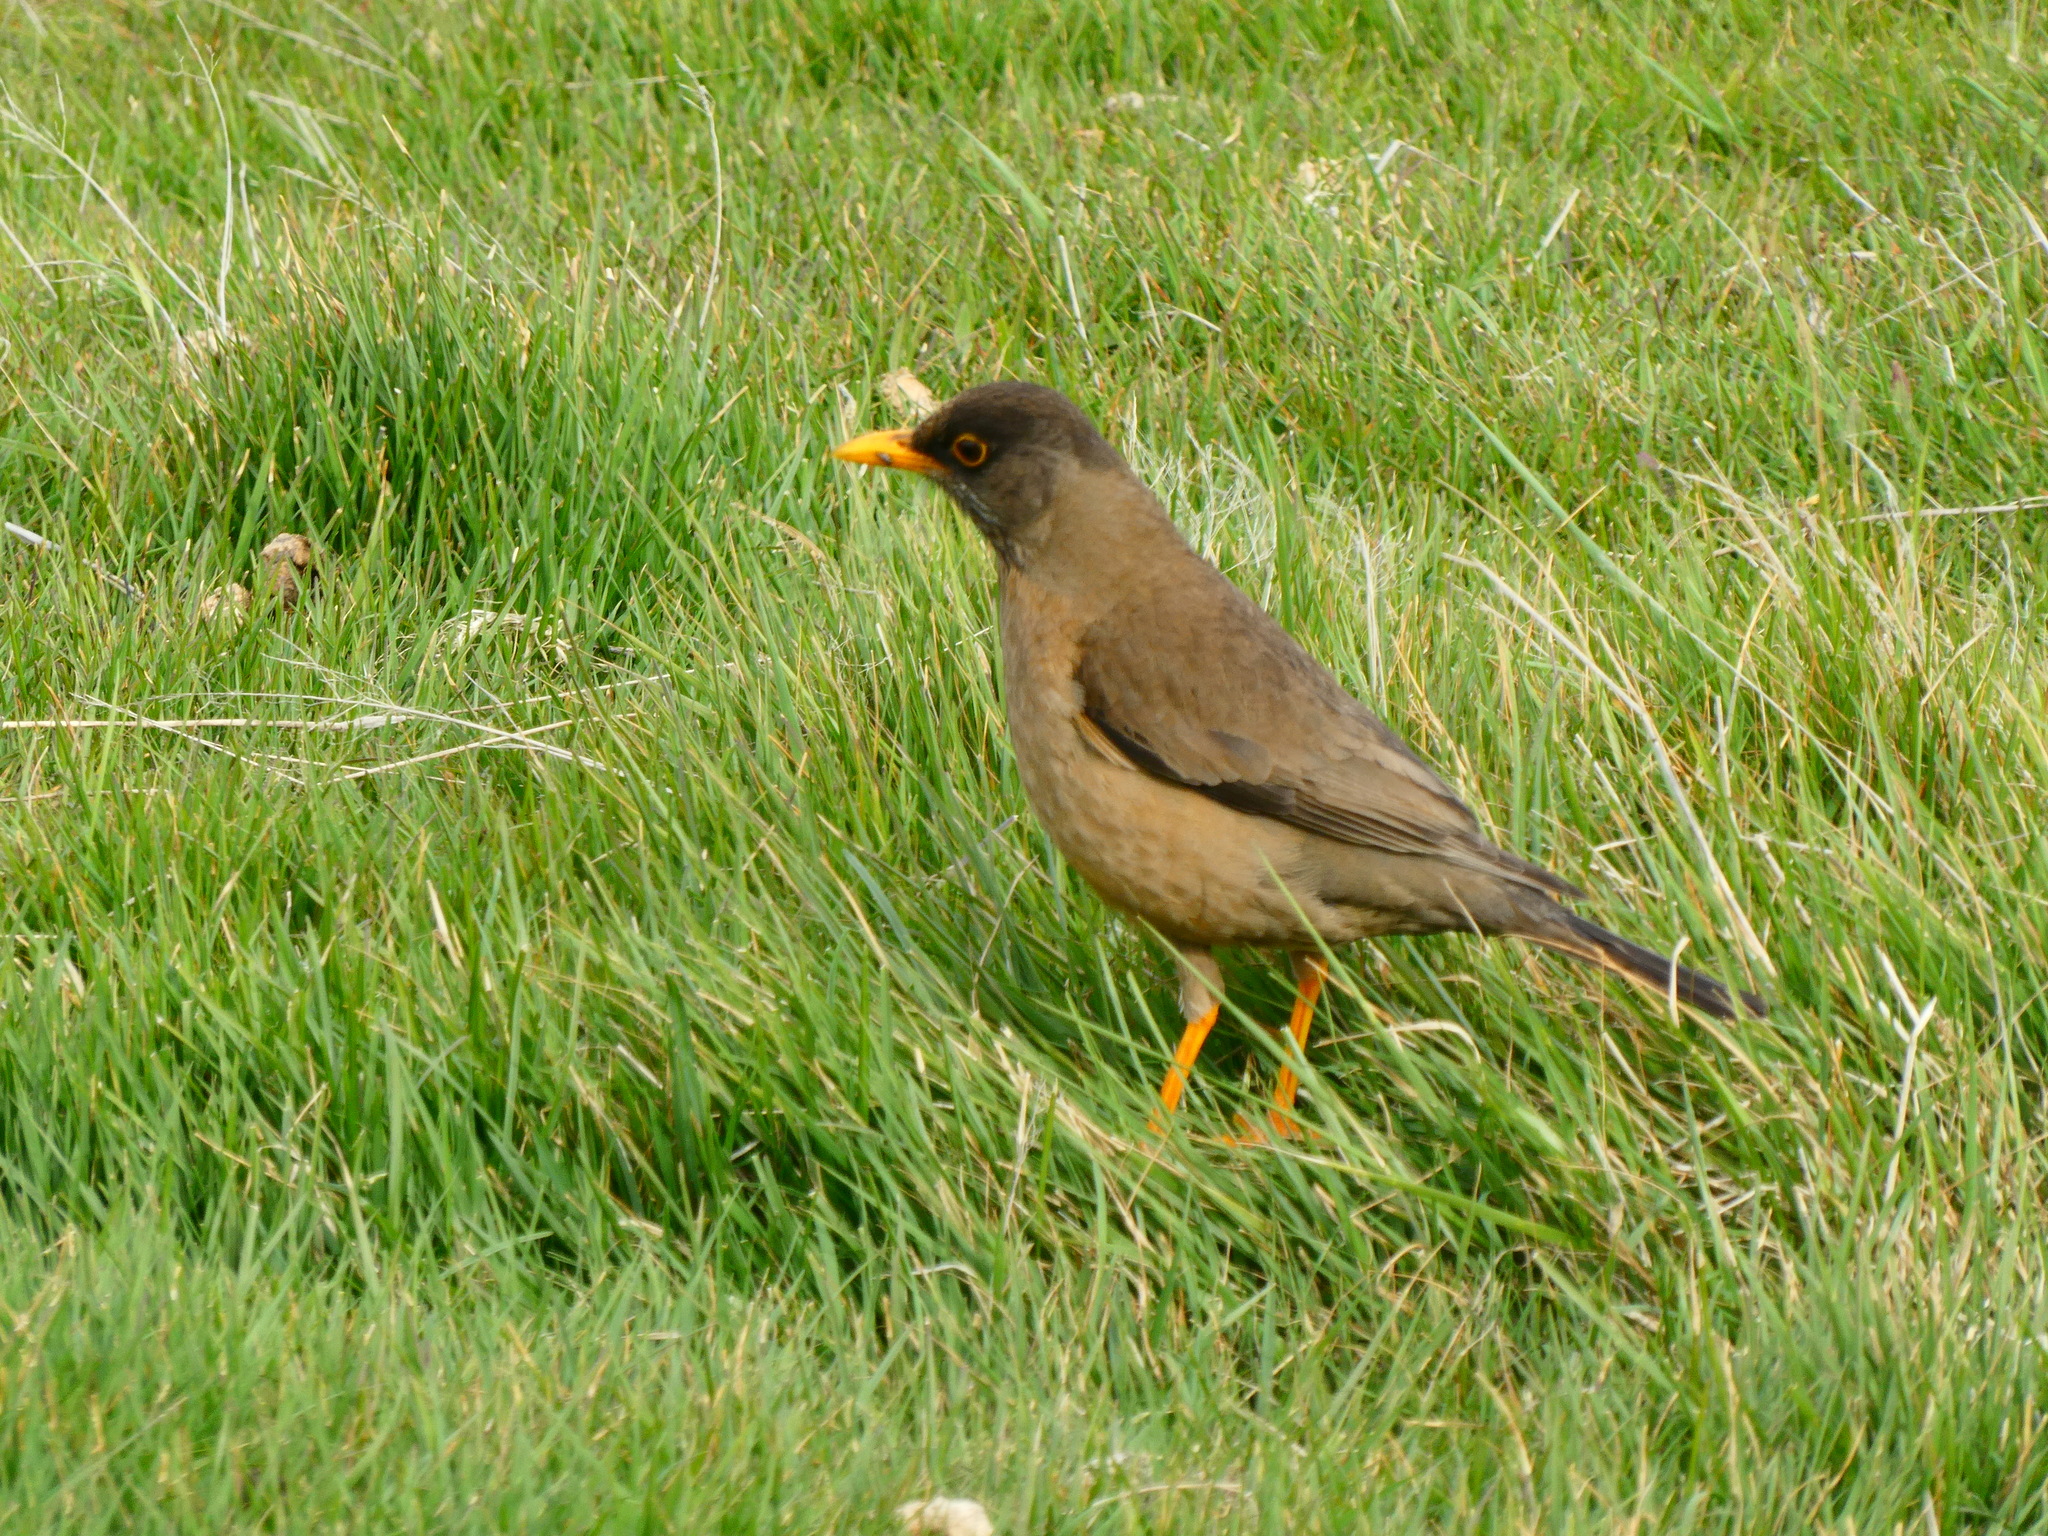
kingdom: Animalia
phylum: Chordata
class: Aves
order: Passeriformes
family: Turdidae
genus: Turdus
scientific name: Turdus falcklandii
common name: Austral thrush
